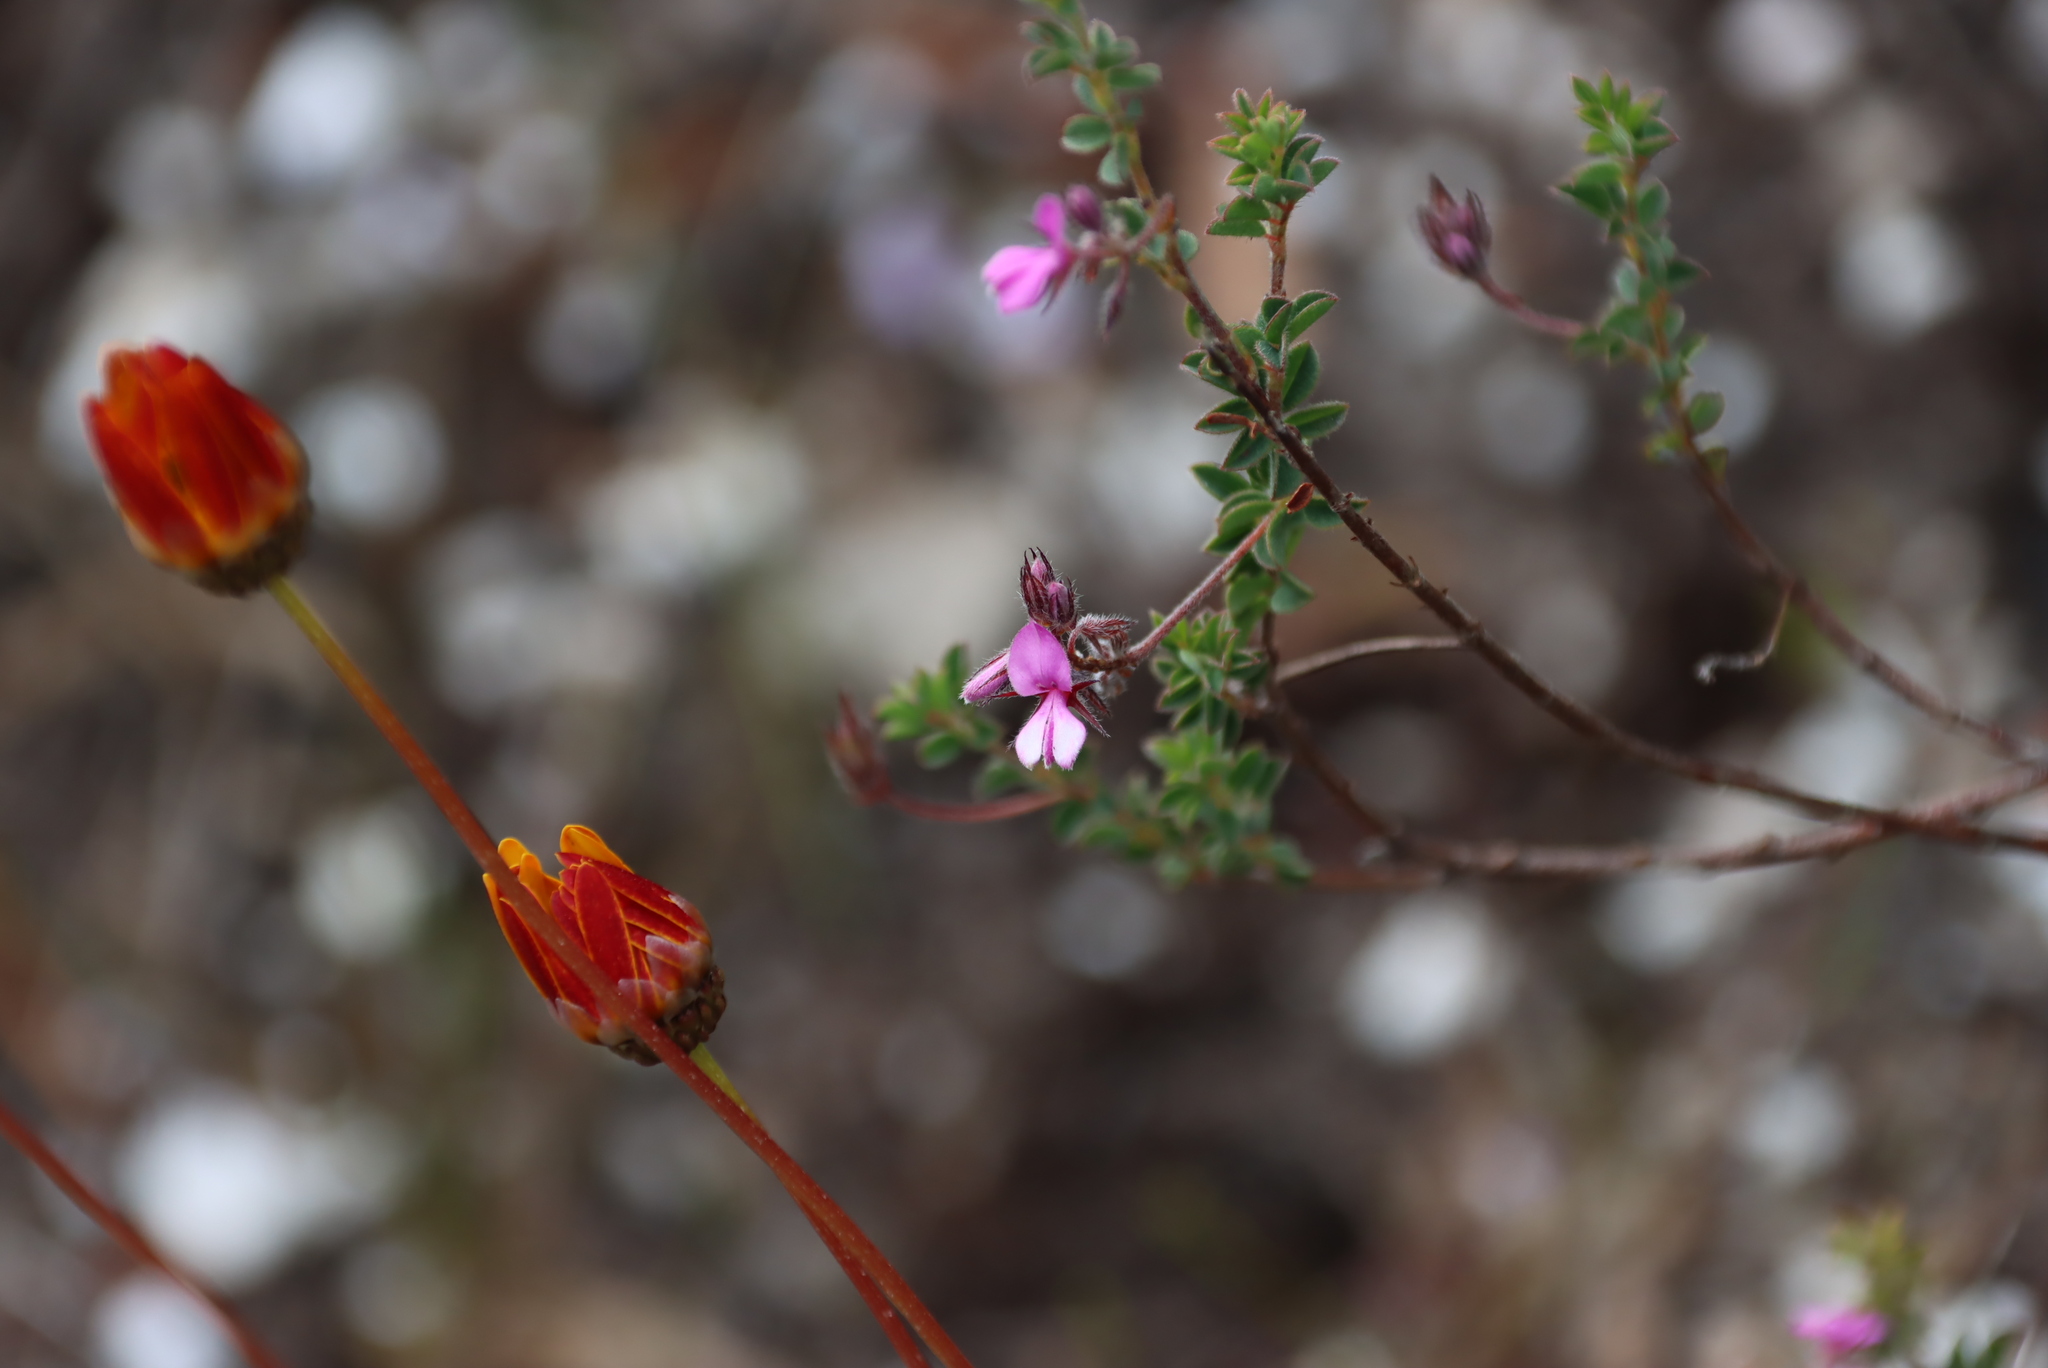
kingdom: Plantae
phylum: Tracheophyta
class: Magnoliopsida
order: Fabales
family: Fabaceae
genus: Indigofera
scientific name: Indigofera alopecuroides
